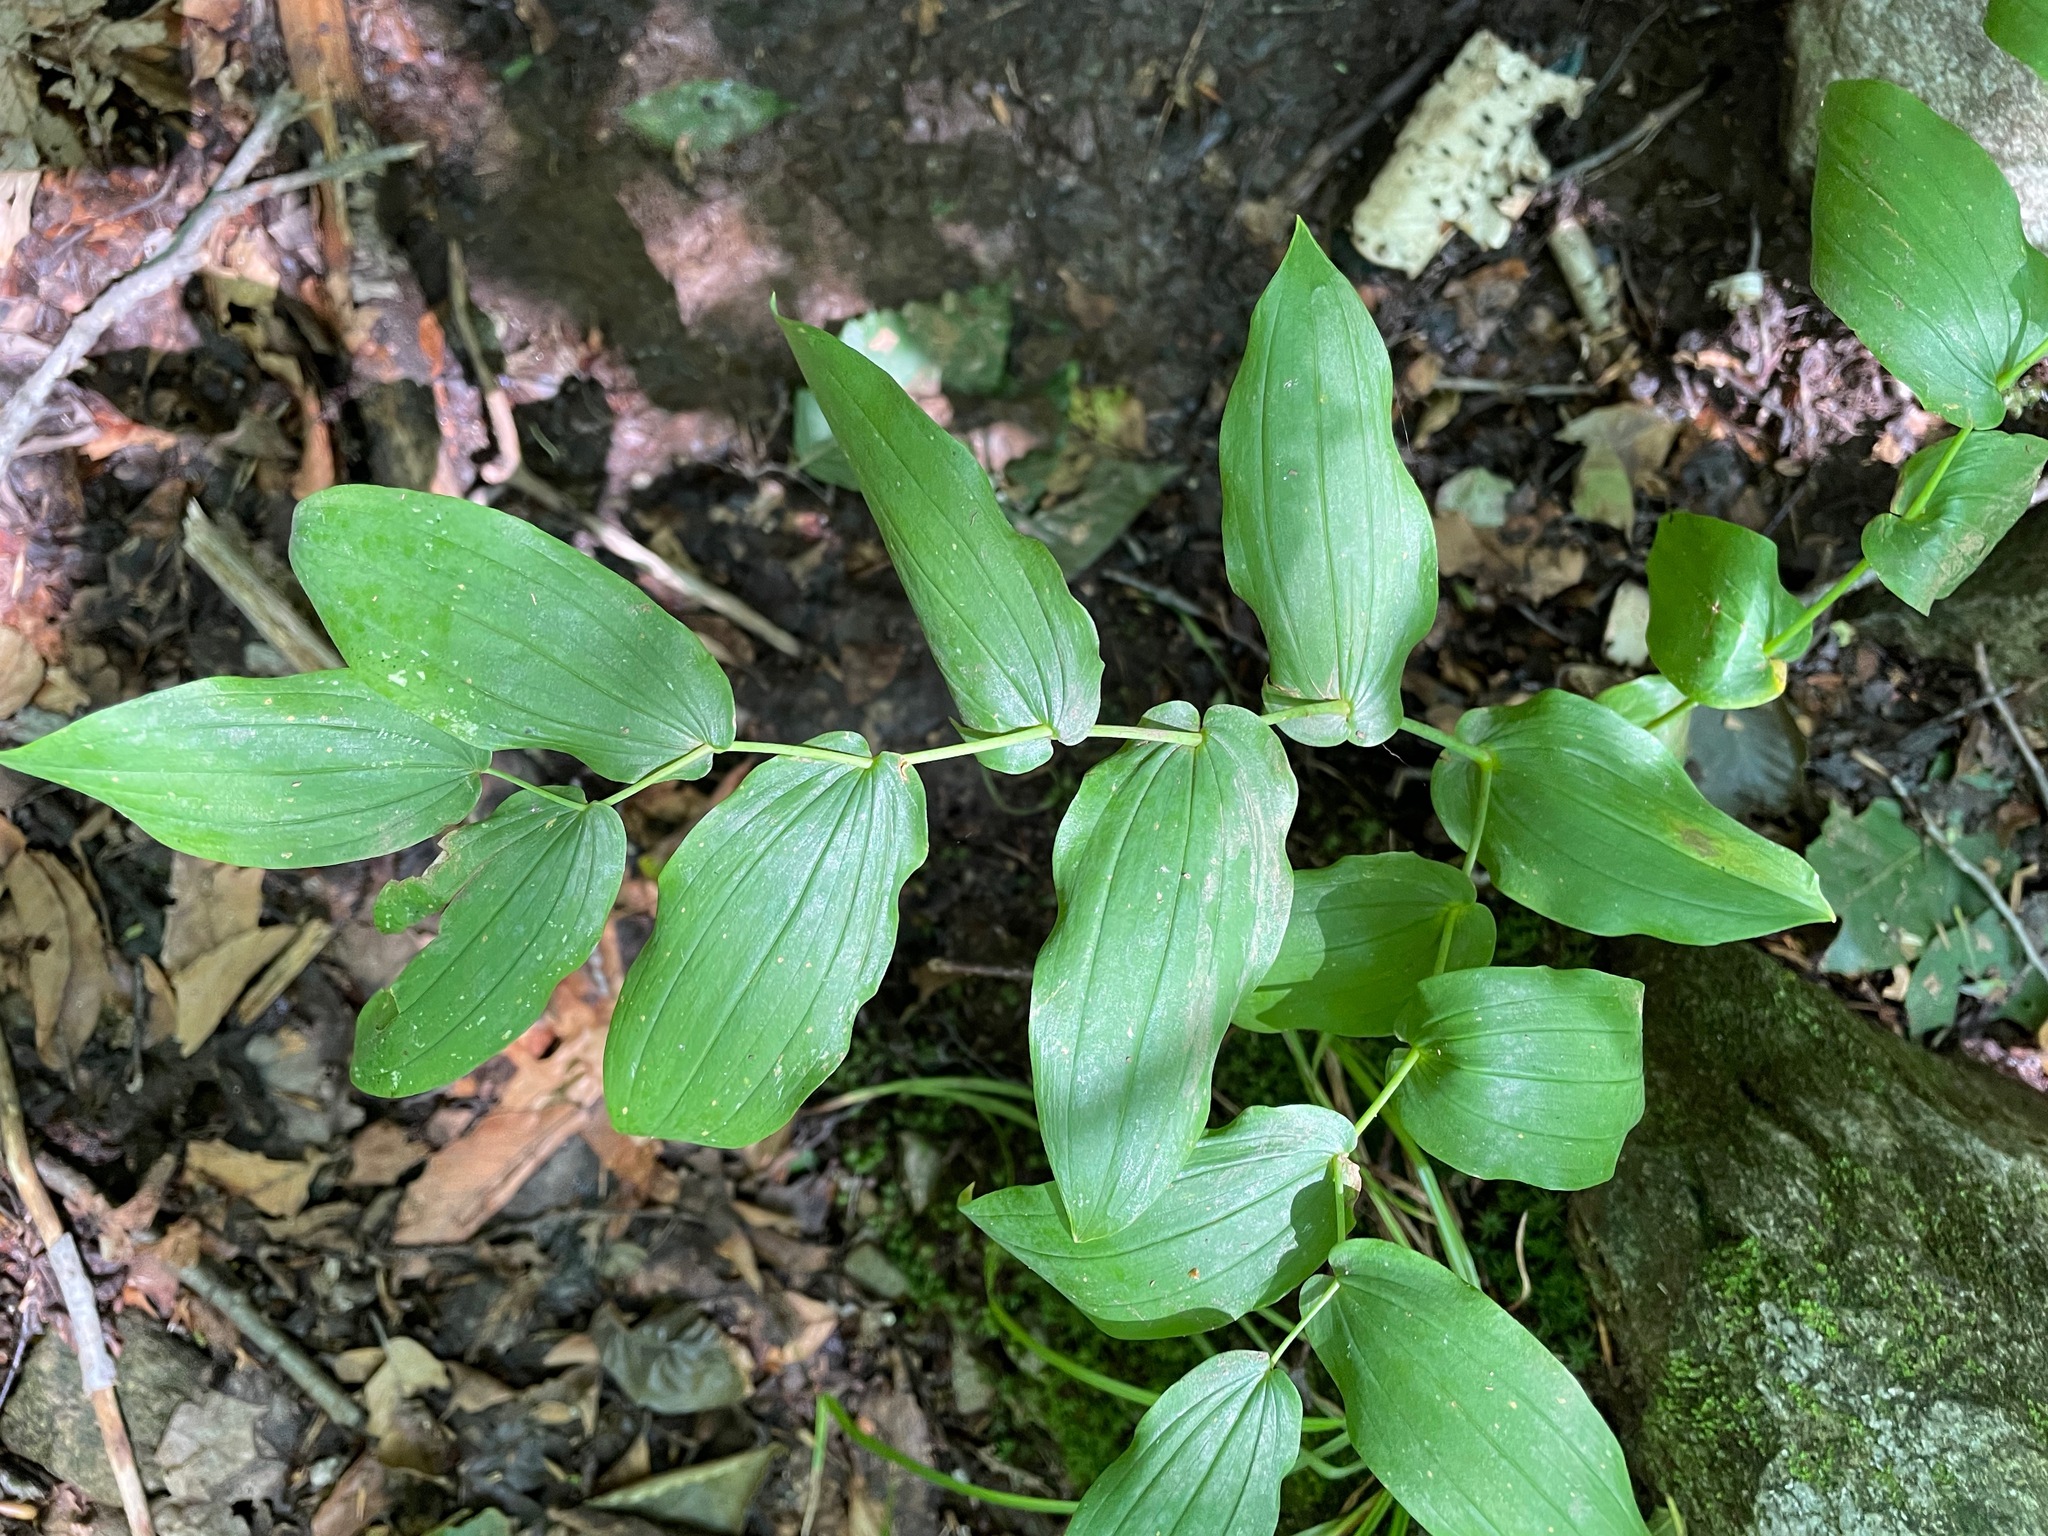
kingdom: Plantae
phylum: Tracheophyta
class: Liliopsida
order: Liliales
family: Liliaceae
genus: Streptopus
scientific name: Streptopus amplexifolius
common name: Clasp twisted stalk
